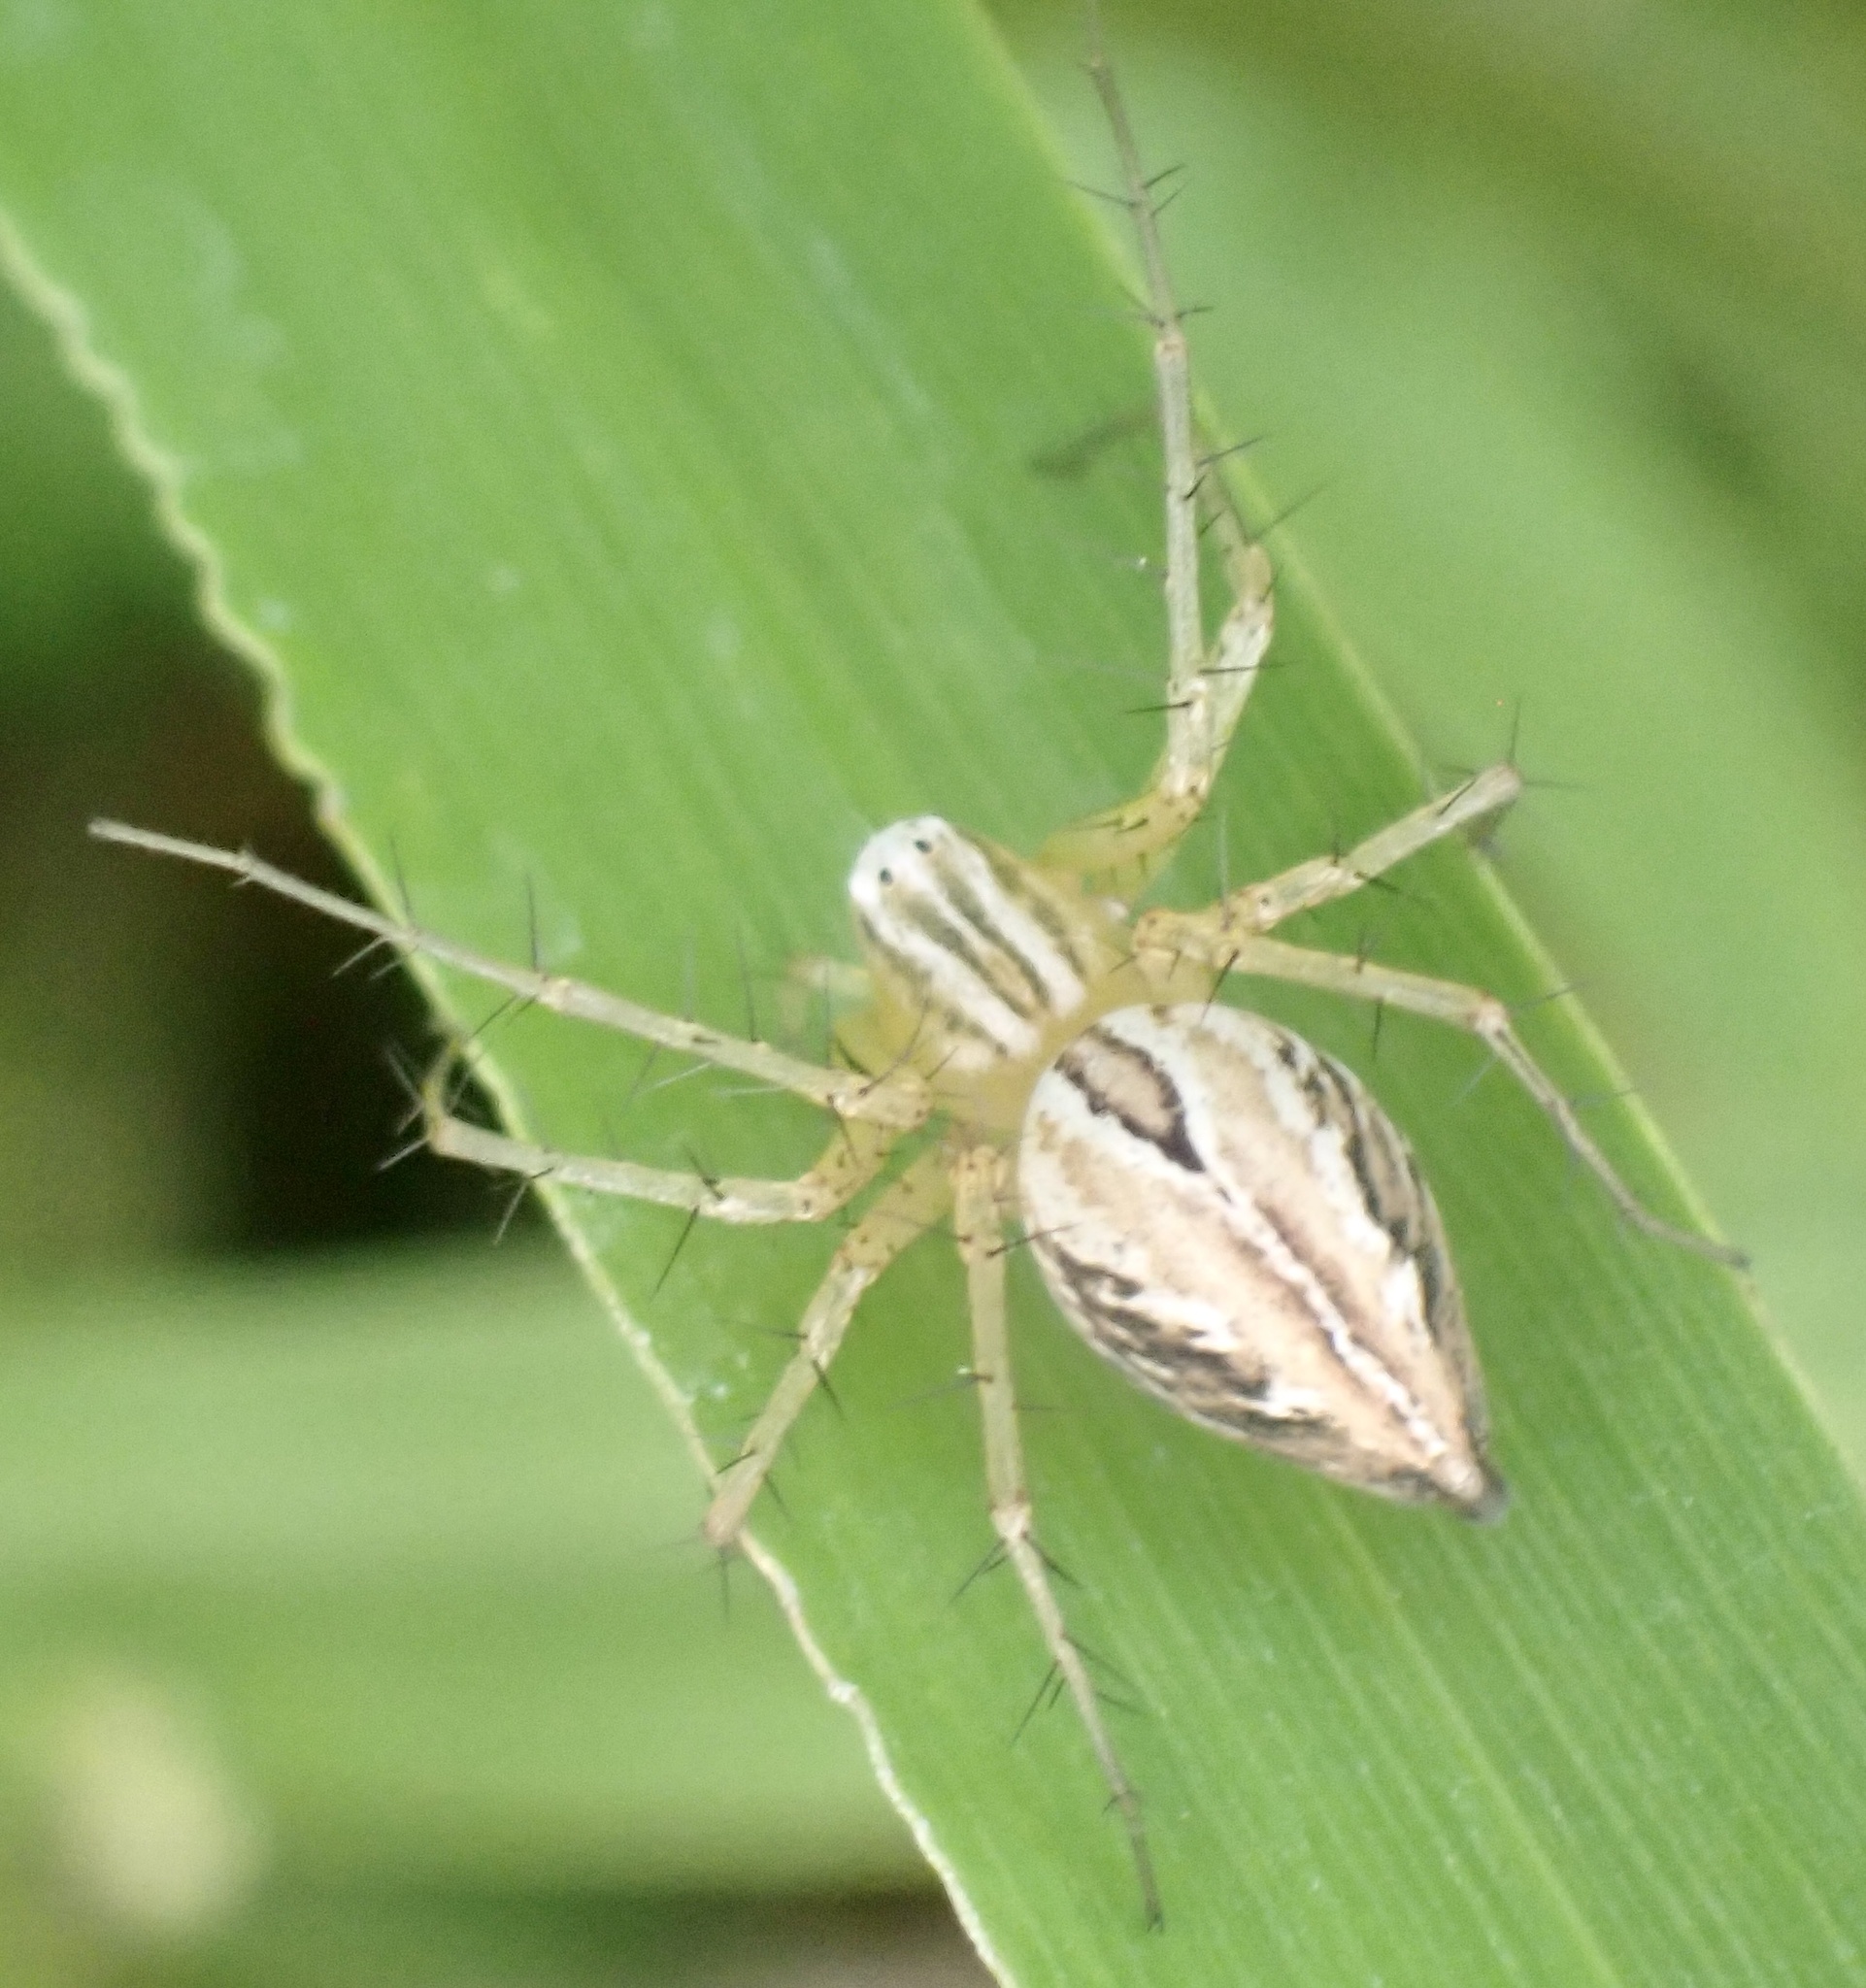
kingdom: Animalia
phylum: Arthropoda
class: Arachnida
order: Araneae
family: Oxyopidae
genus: Oxyopes
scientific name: Oxyopes salticus
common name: Lynx spiders
